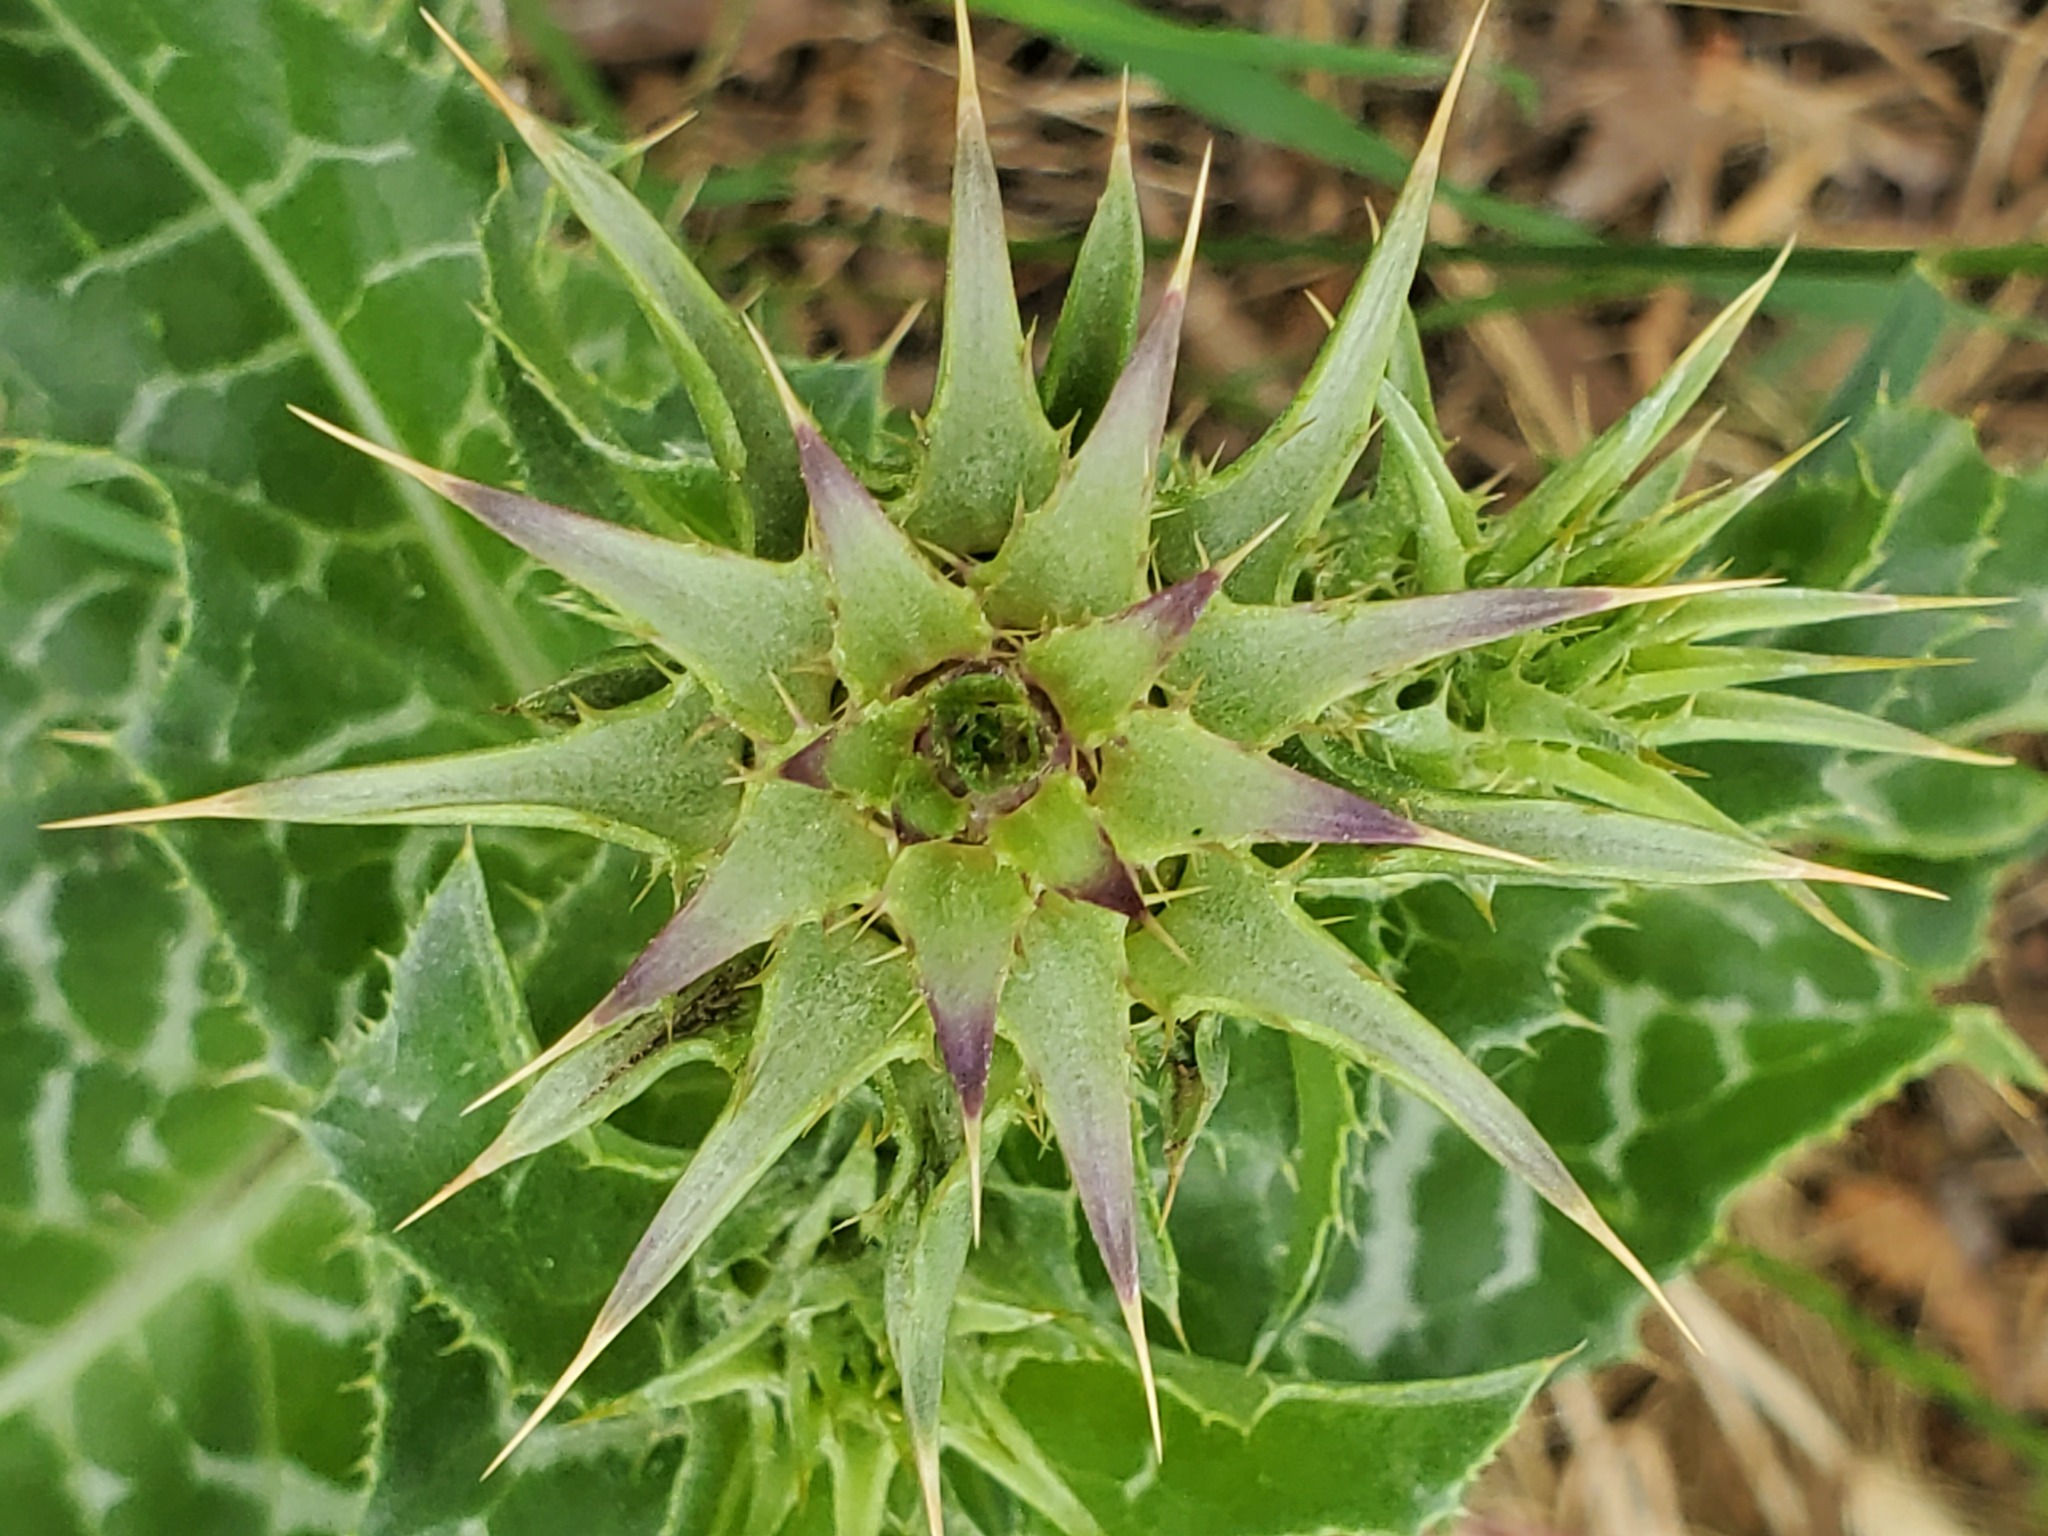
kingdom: Plantae
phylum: Tracheophyta
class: Magnoliopsida
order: Asterales
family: Asteraceae
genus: Silybum
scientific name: Silybum marianum
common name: Milk thistle
